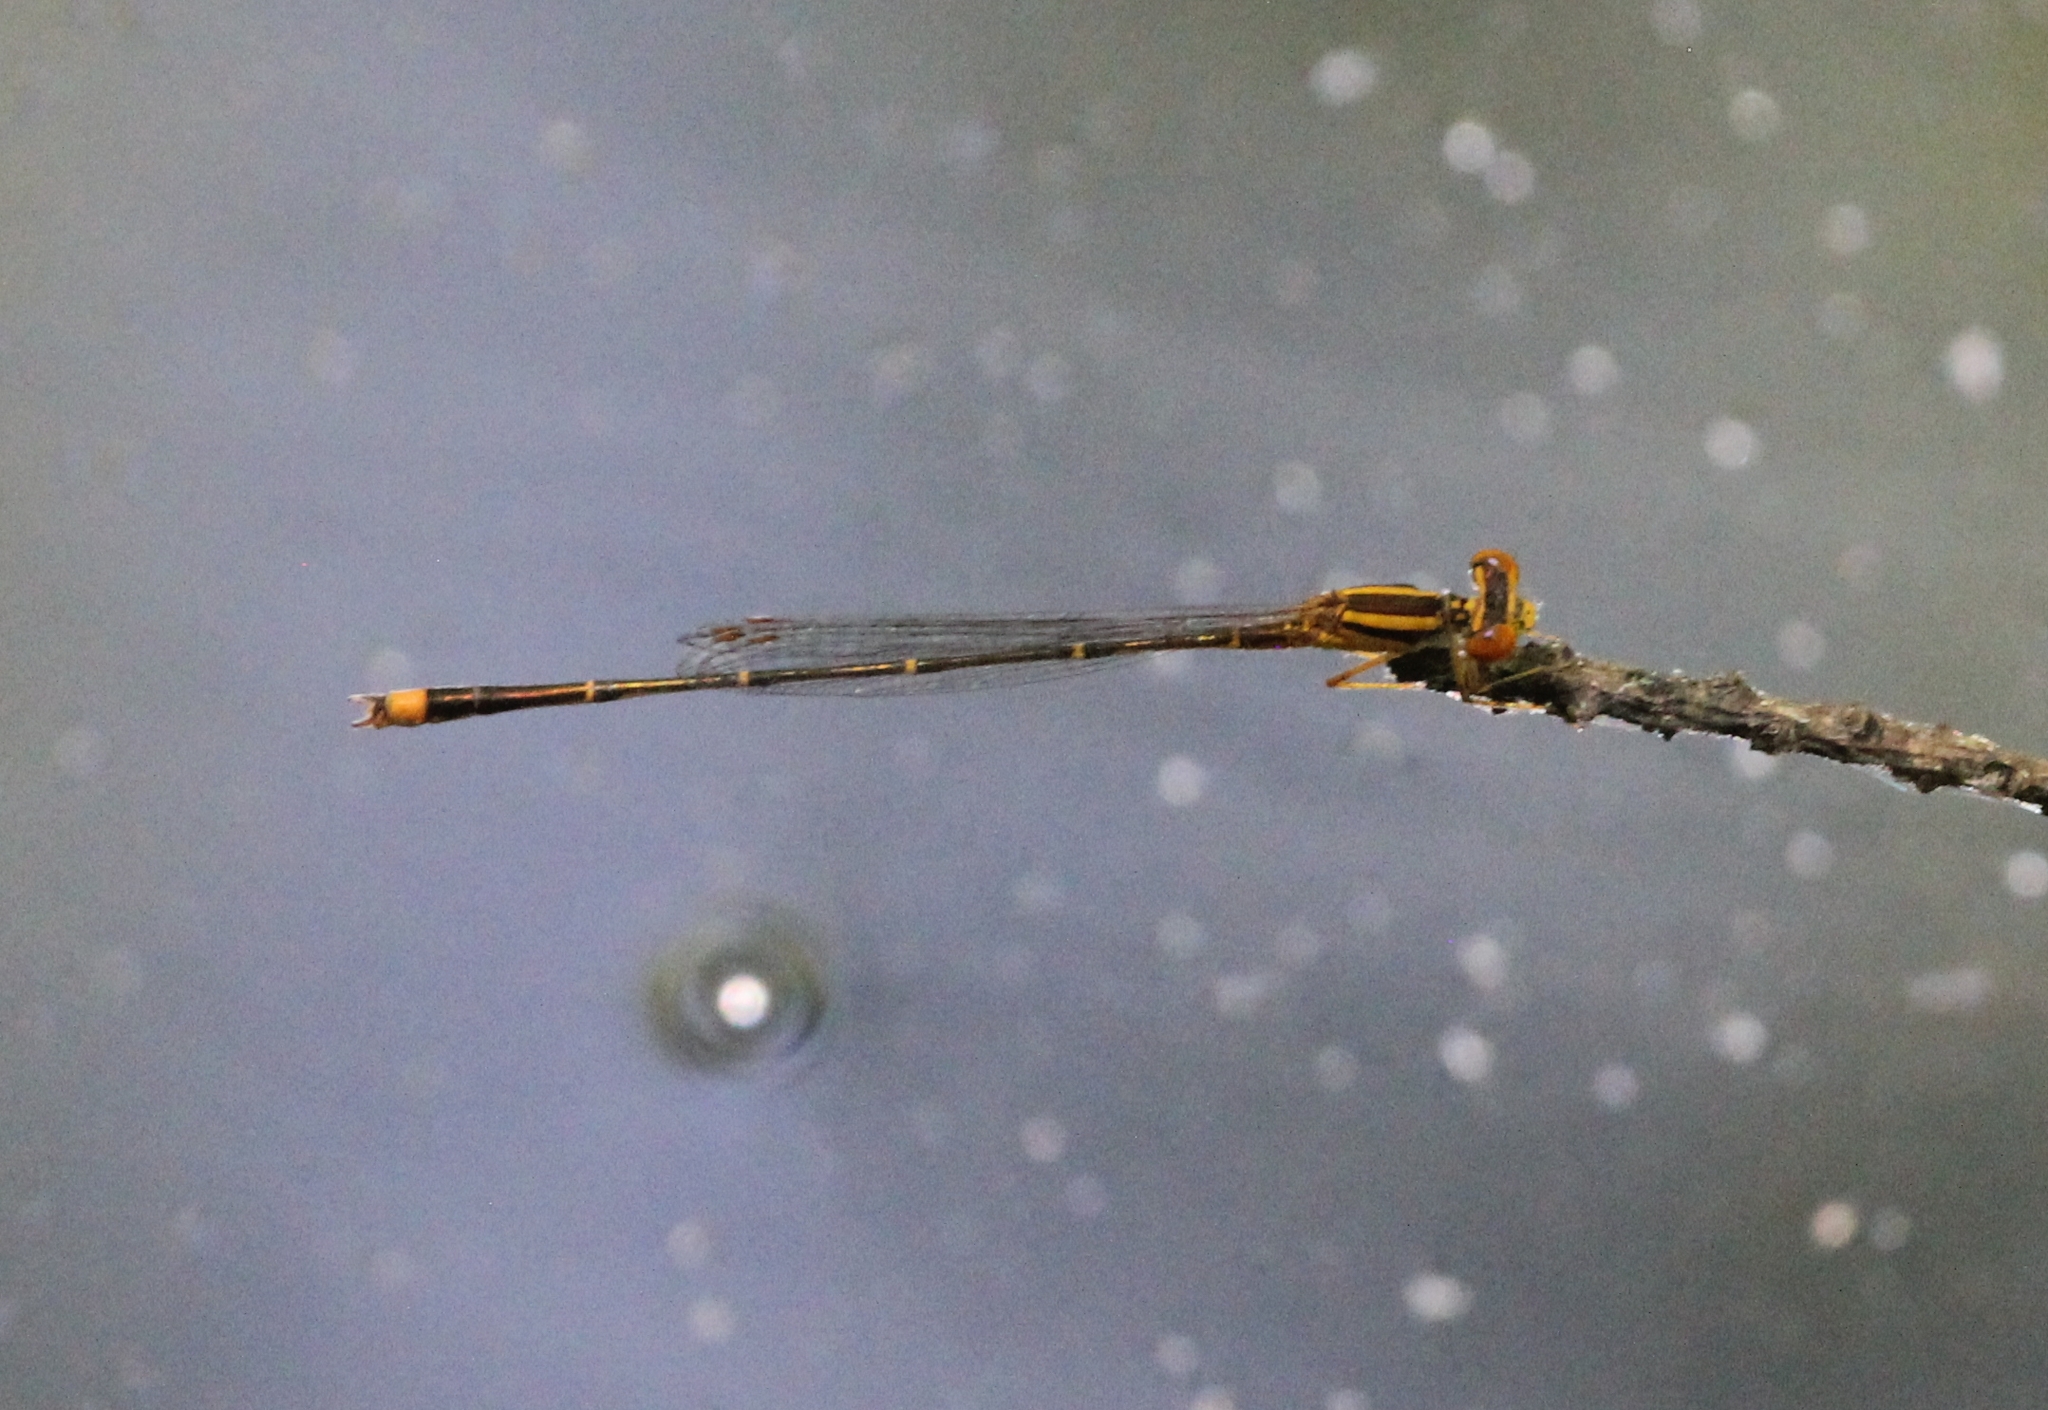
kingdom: Animalia
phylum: Arthropoda
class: Insecta
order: Odonata
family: Coenagrionidae
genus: Enallagma
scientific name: Enallagma signatum
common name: Orange bluet
